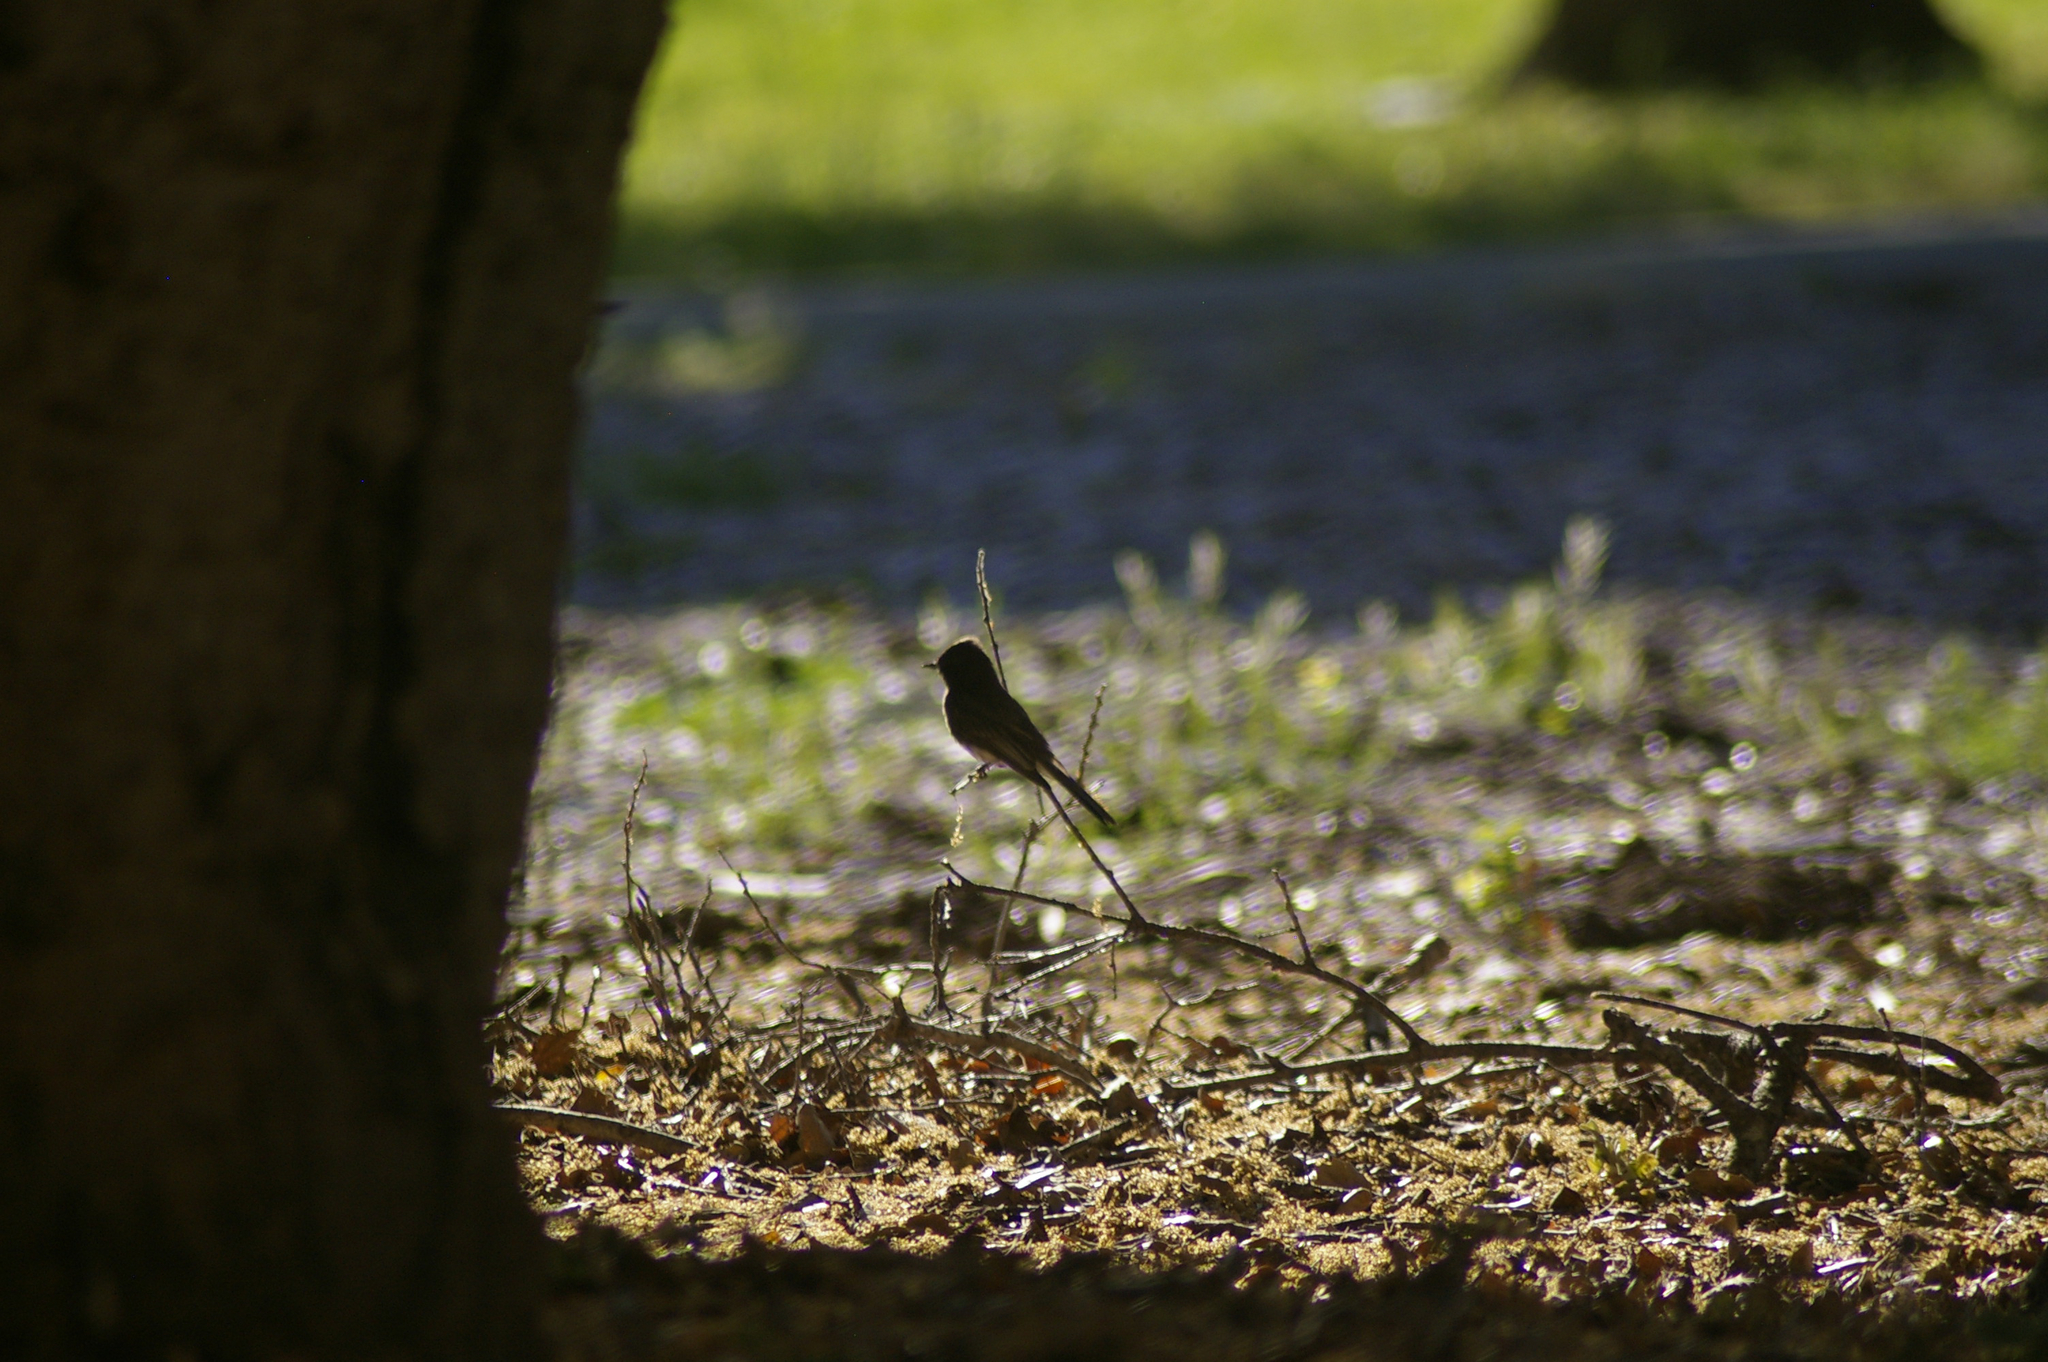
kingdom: Animalia
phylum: Chordata
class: Aves
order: Passeriformes
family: Tyrannidae
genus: Sayornis
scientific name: Sayornis nigricans
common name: Black phoebe
